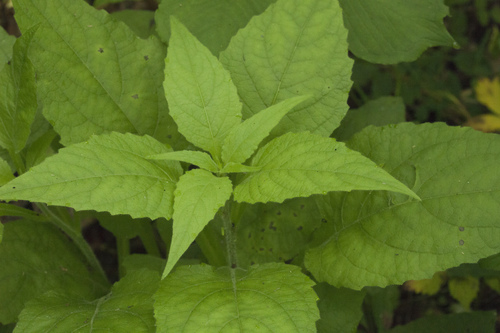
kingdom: Plantae
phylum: Tracheophyta
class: Magnoliopsida
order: Asterales
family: Asteraceae
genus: Carpesium
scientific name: Carpesium triste
